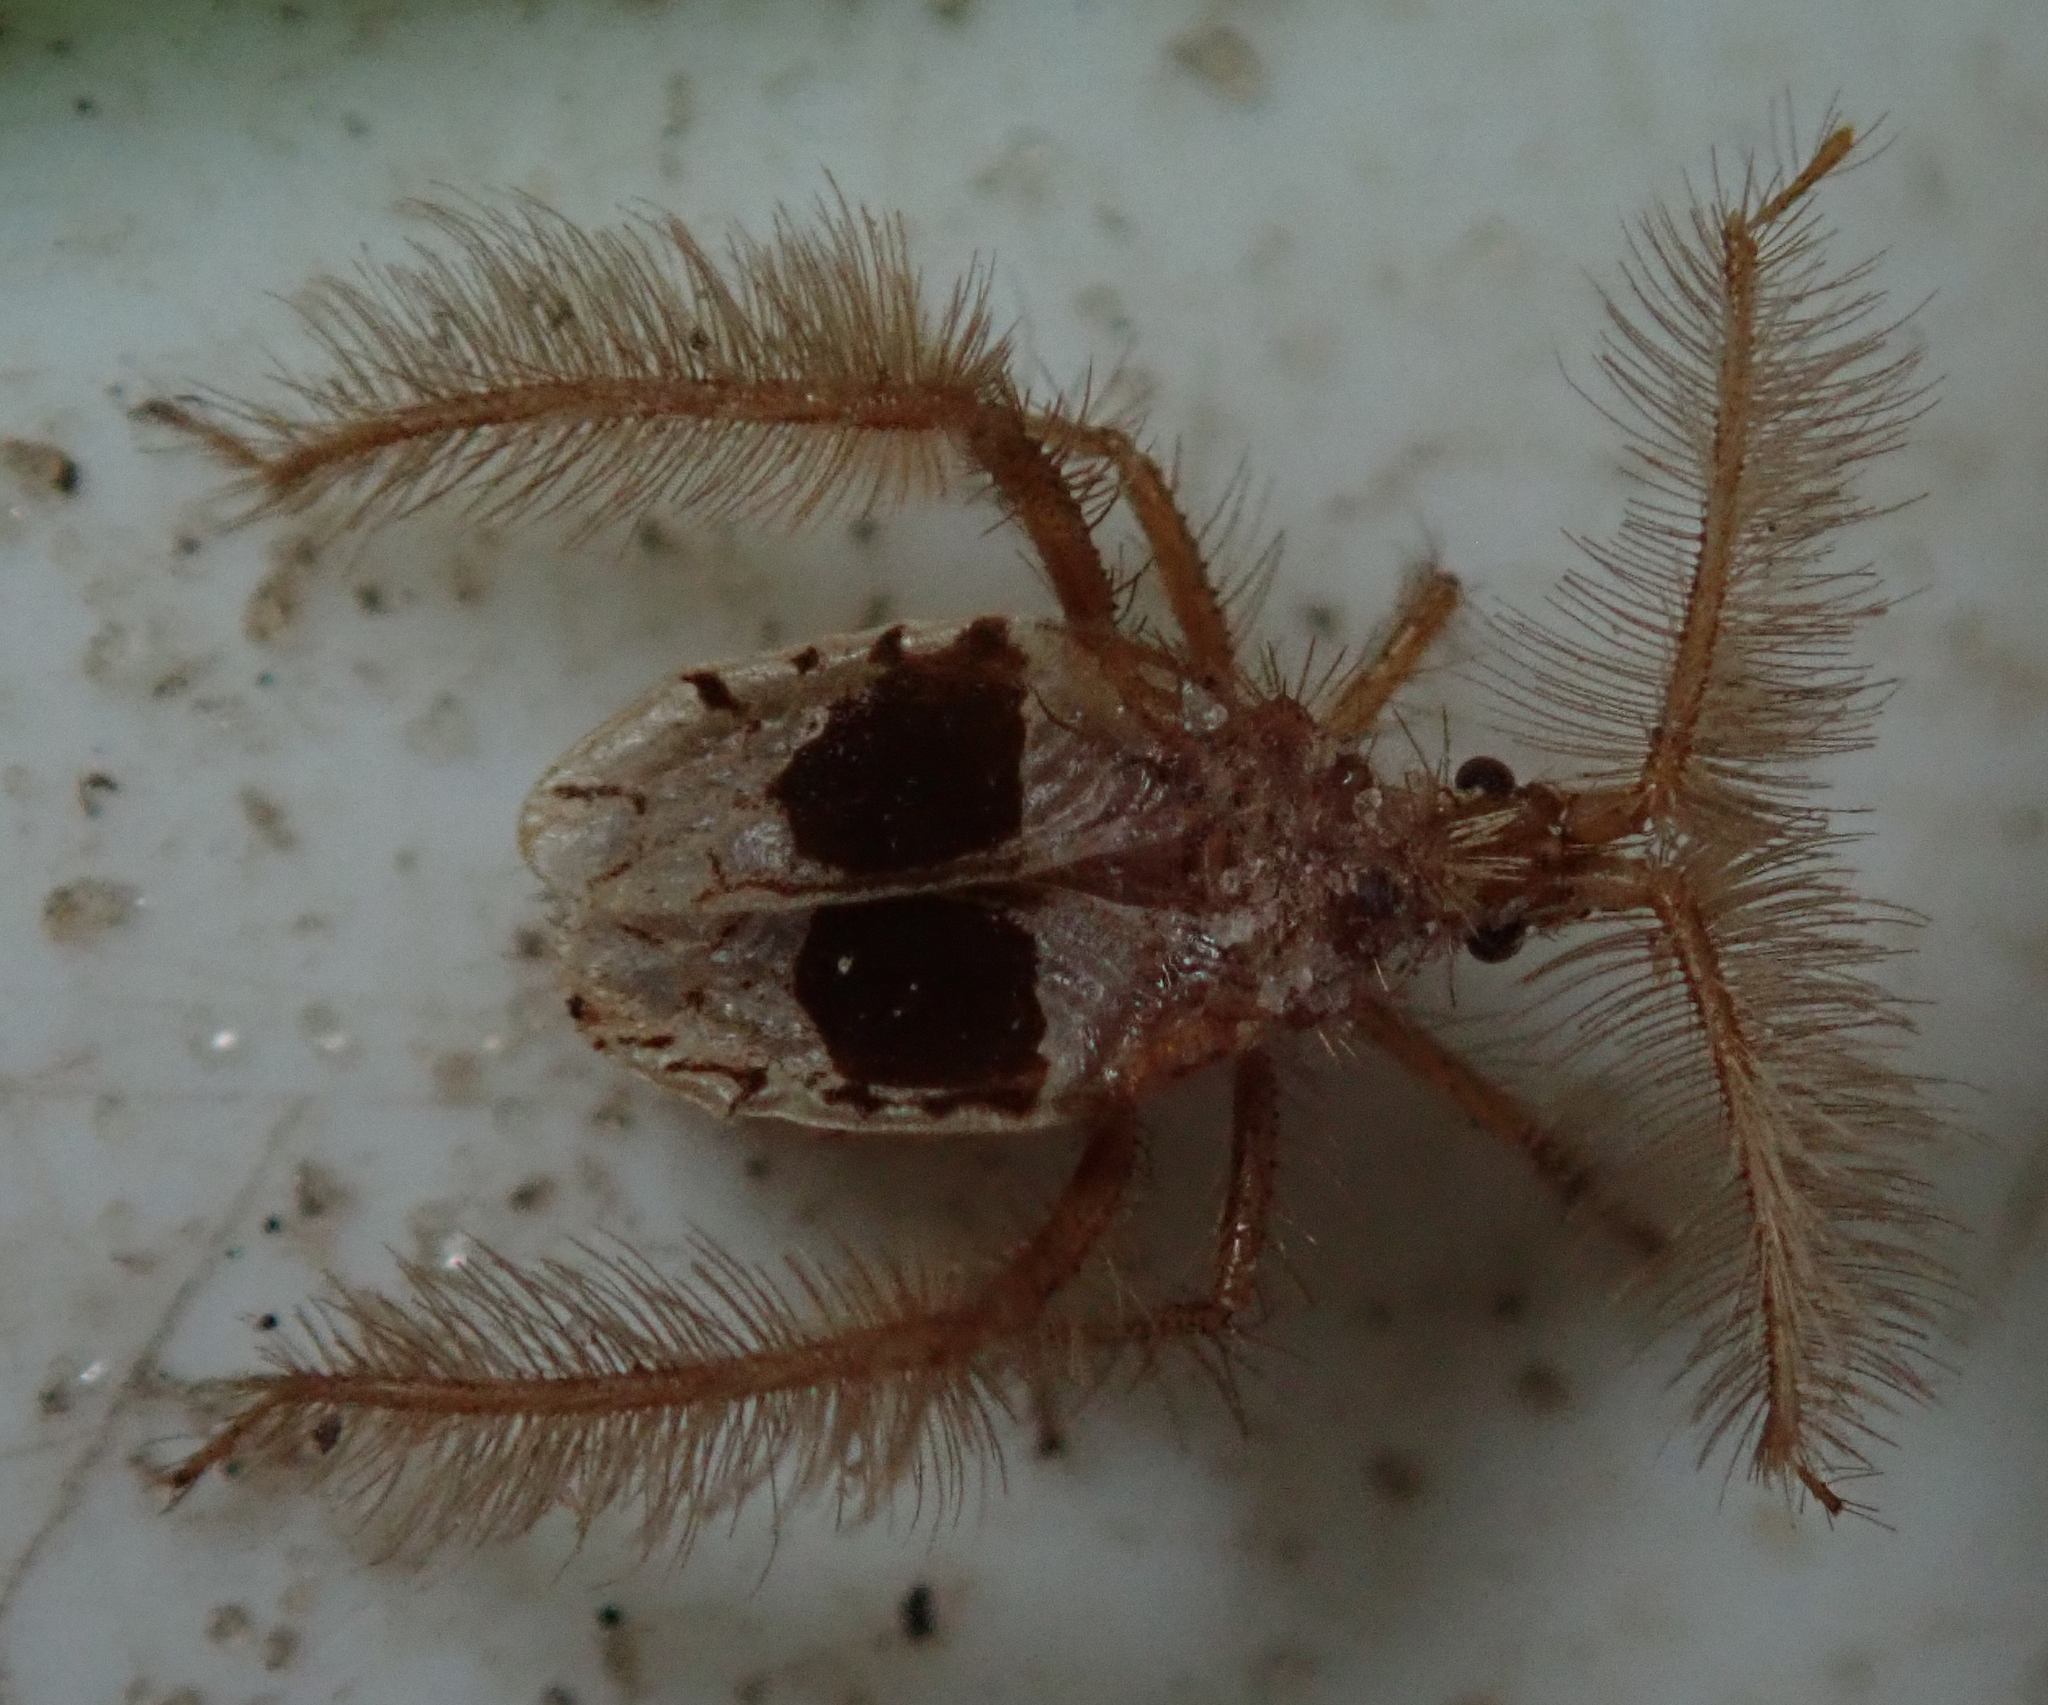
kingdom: Animalia
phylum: Arthropoda
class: Insecta
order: Hemiptera
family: Reduviidae
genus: Holoptilus
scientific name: Holoptilus lupus
